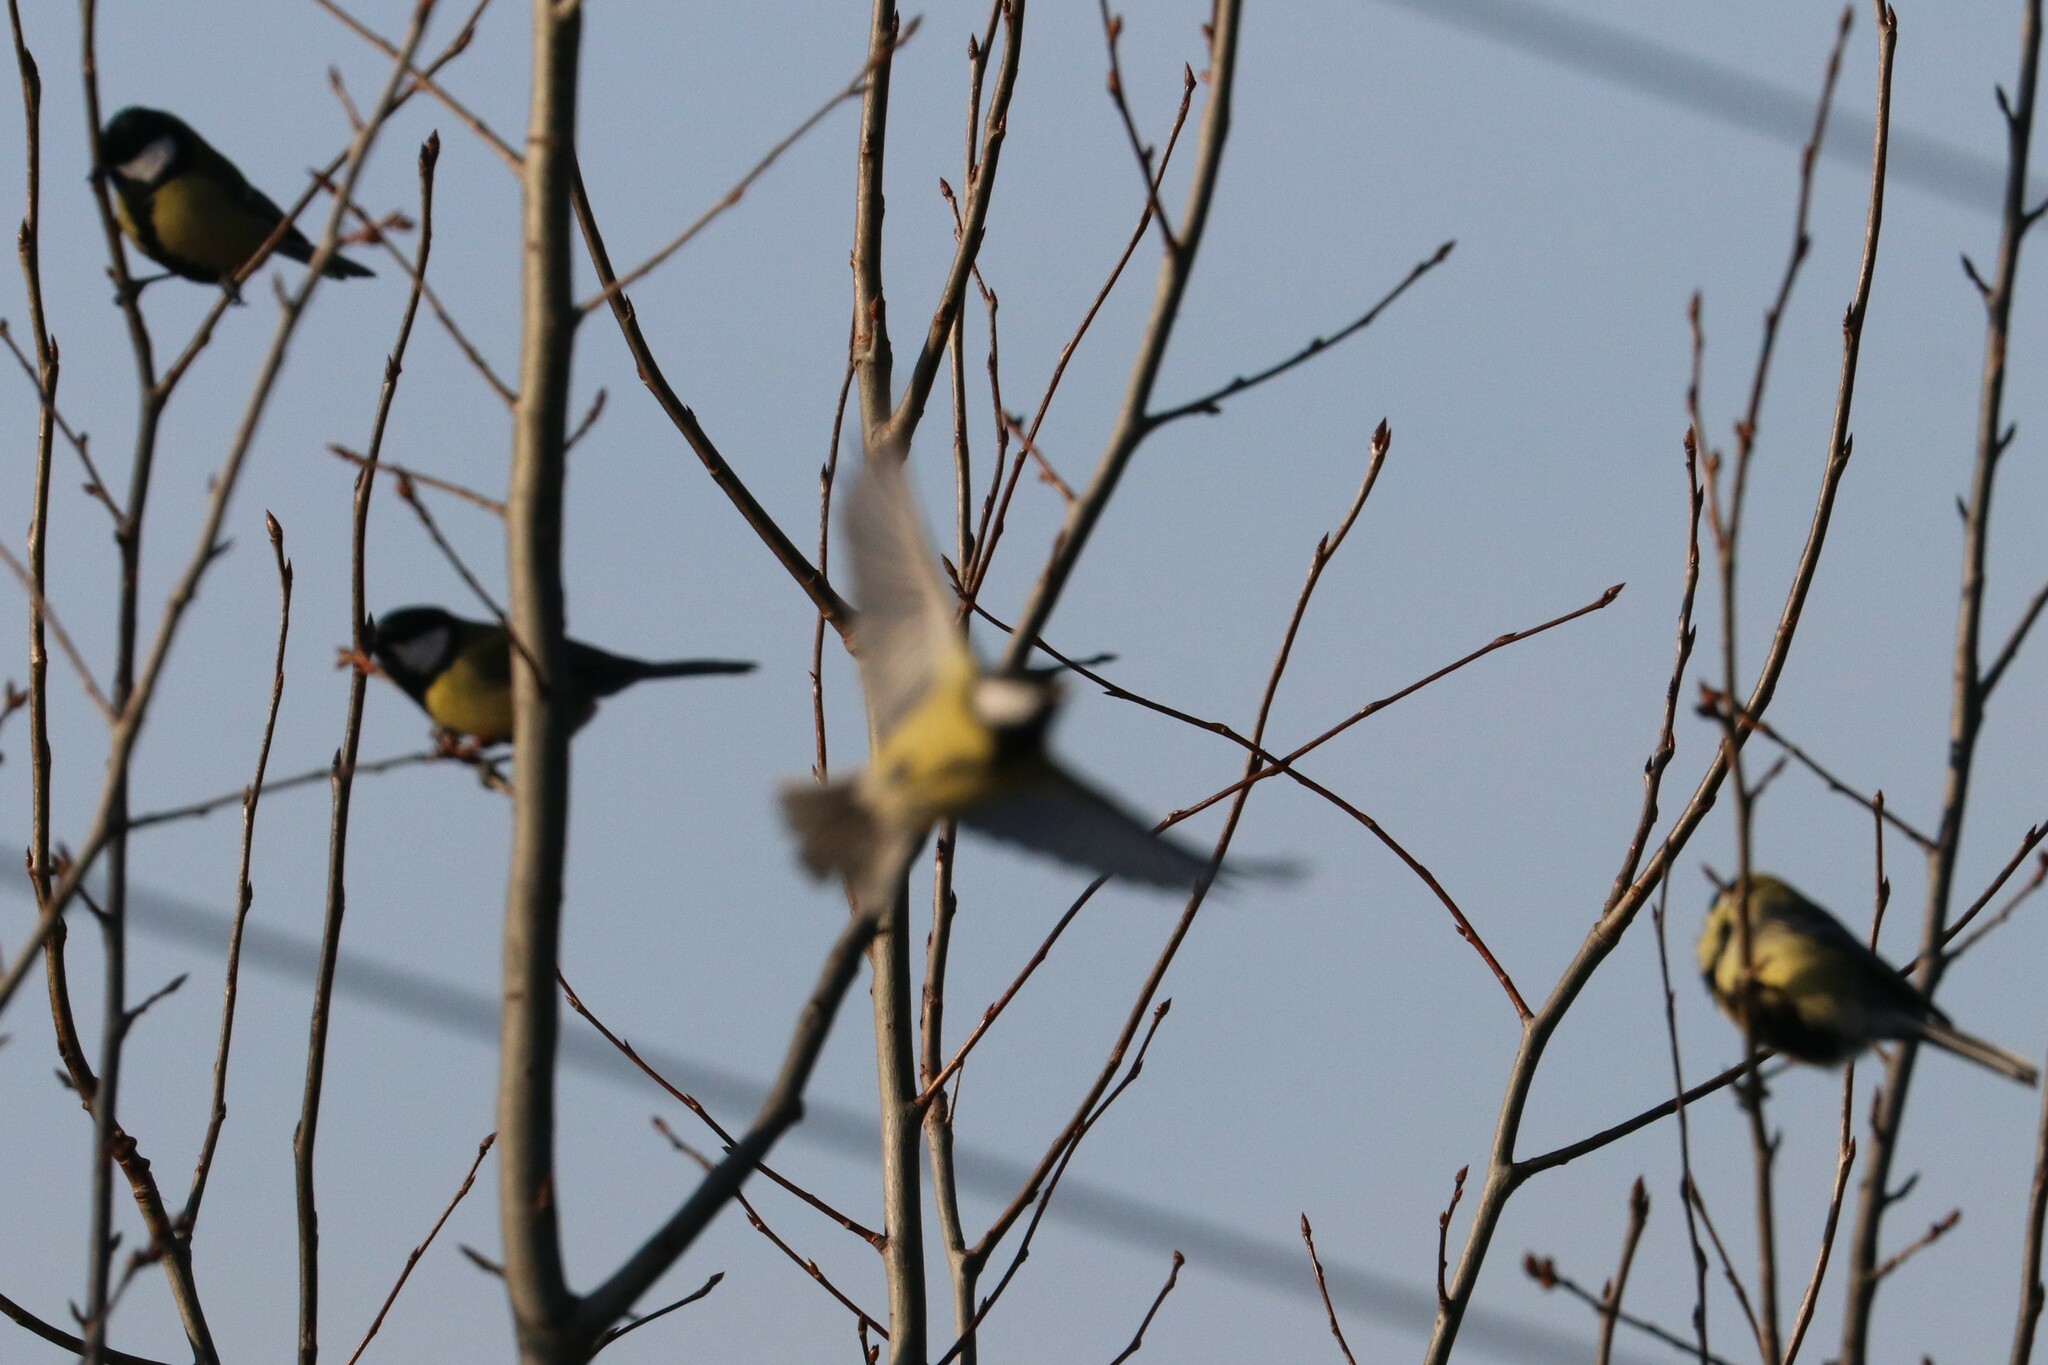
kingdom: Animalia
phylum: Chordata
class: Aves
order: Passeriformes
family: Paridae
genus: Parus
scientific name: Parus major
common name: Great tit
